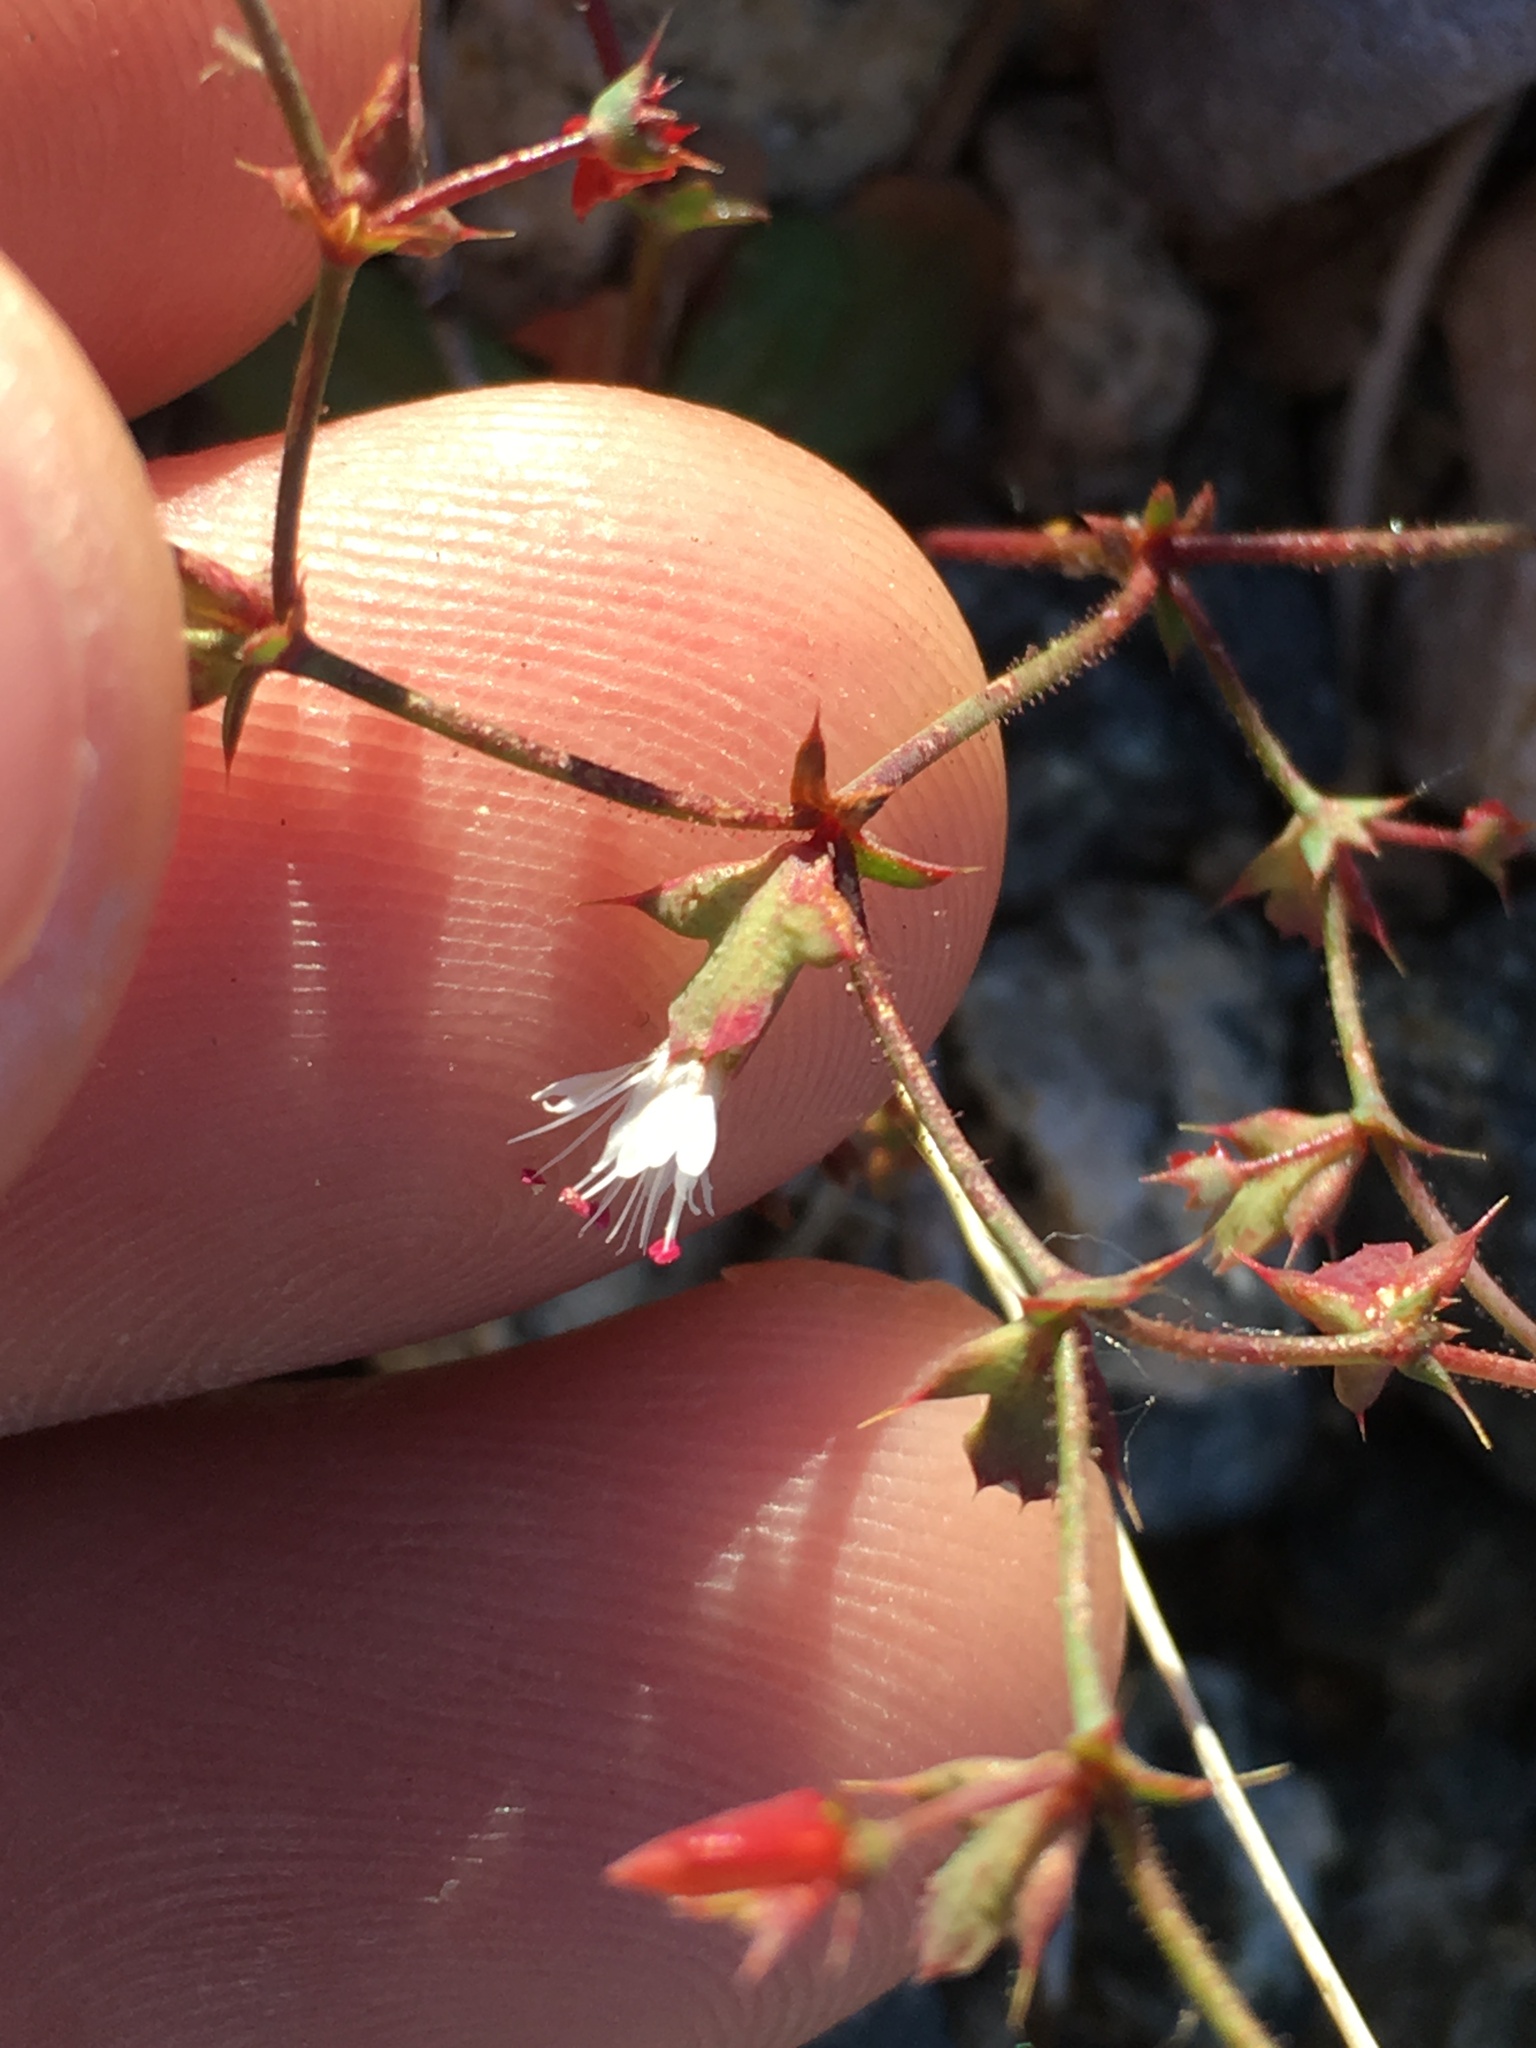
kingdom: Plantae
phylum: Tracheophyta
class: Magnoliopsida
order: Caryophyllales
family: Polygonaceae
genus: Centrostegia
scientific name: Centrostegia thurberi
